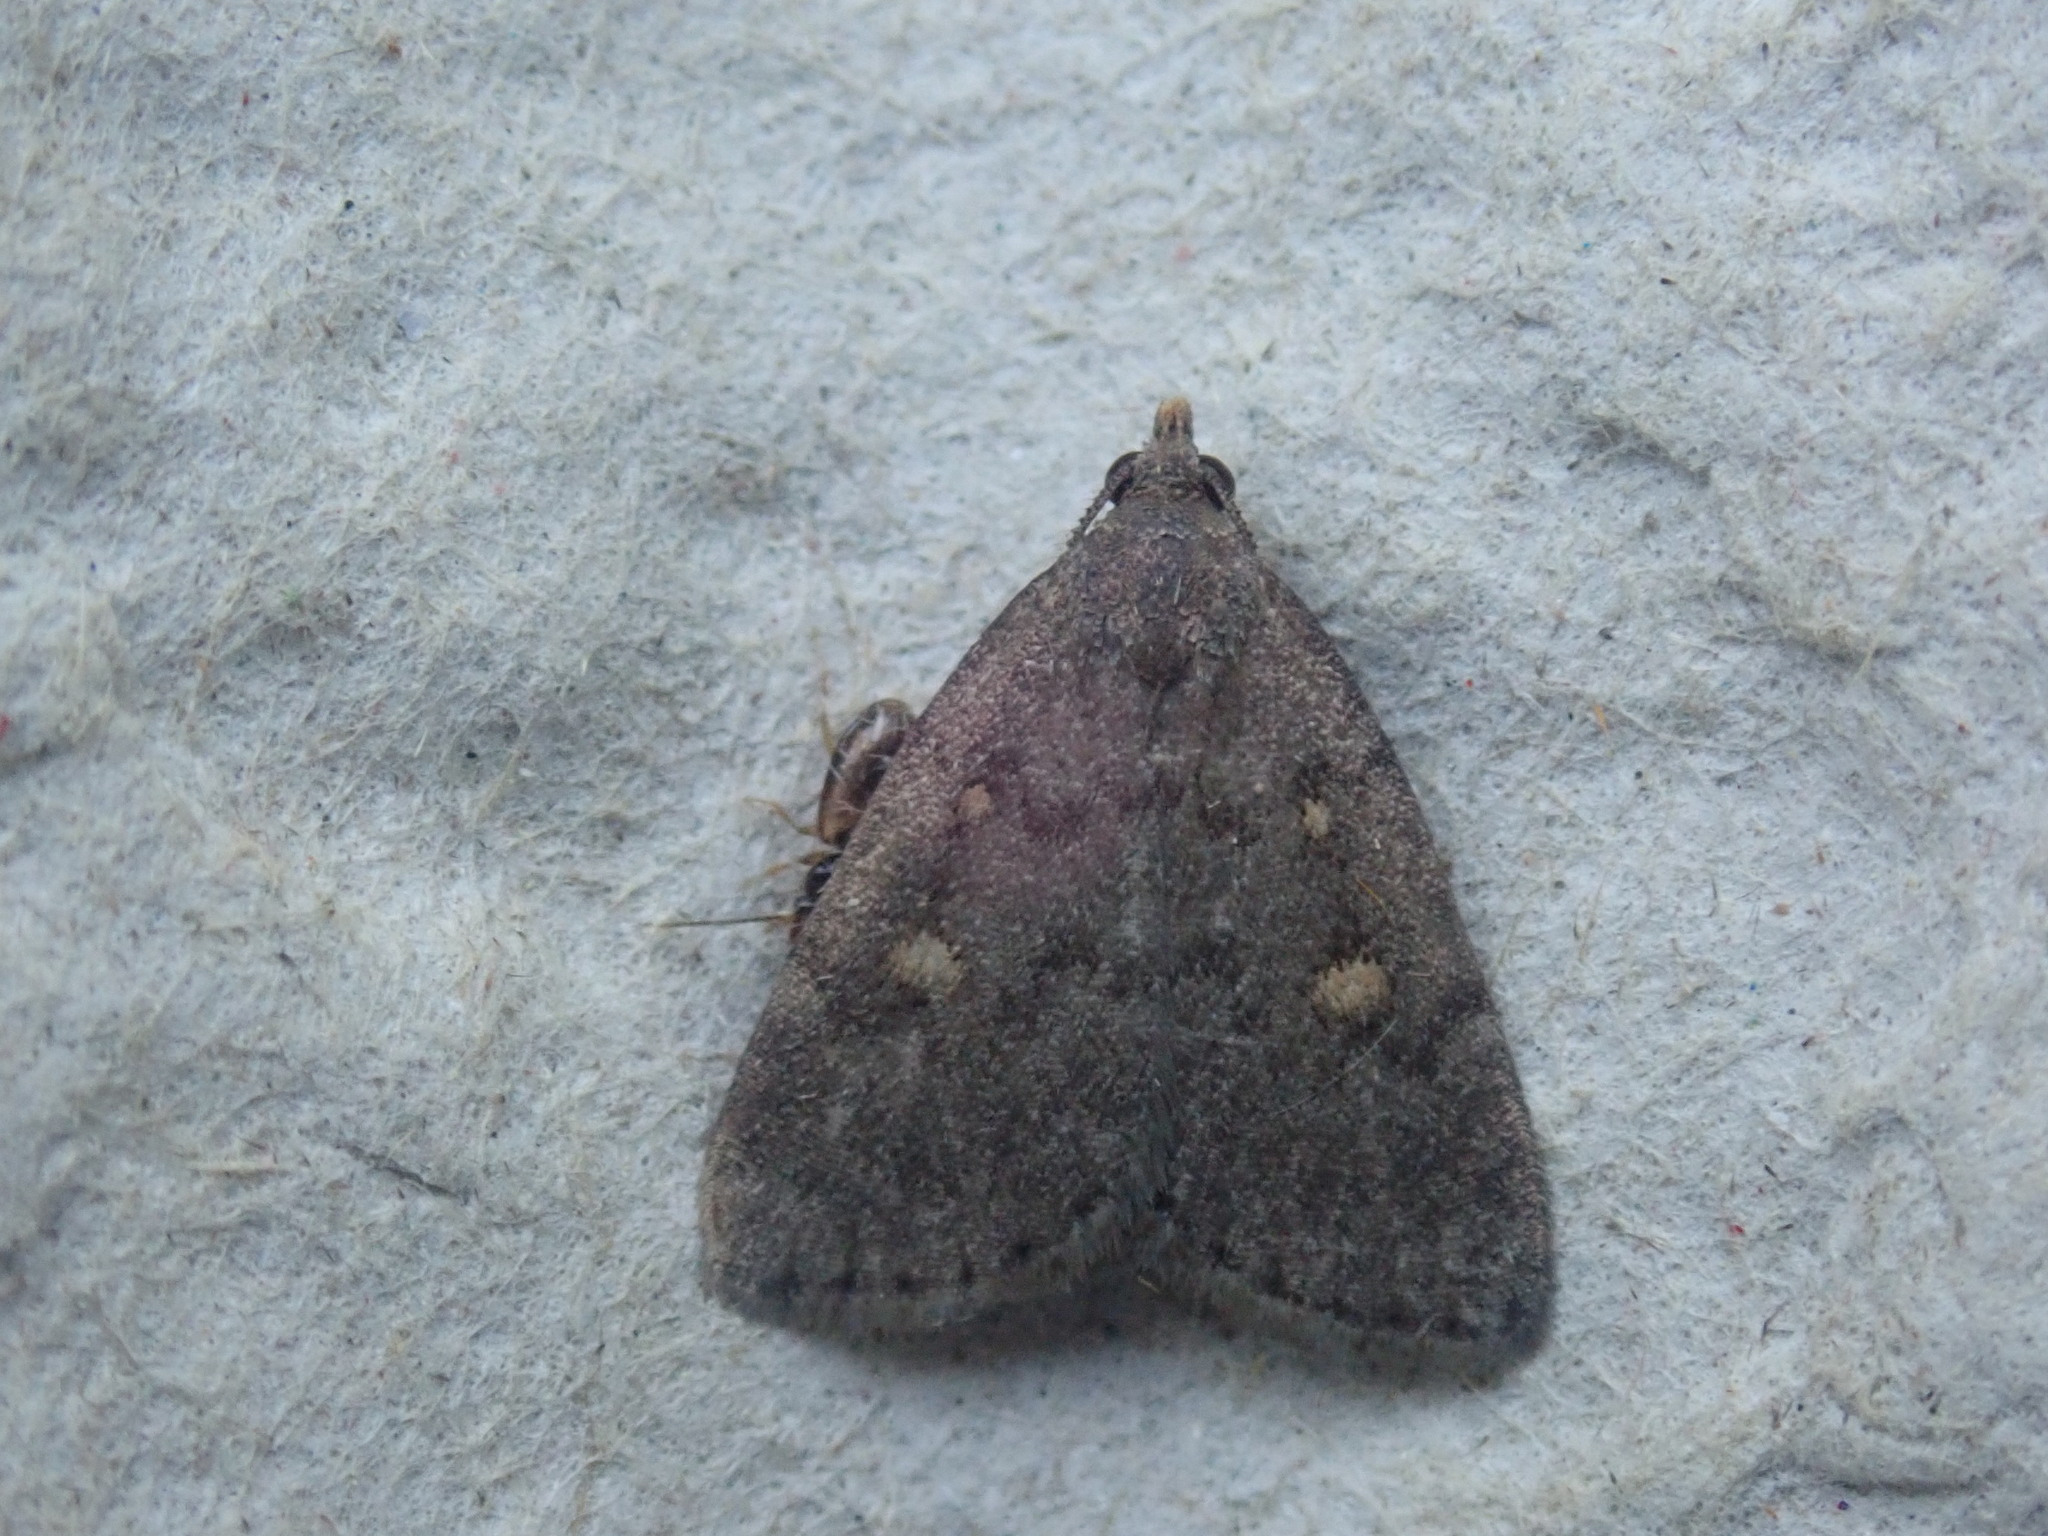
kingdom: Animalia
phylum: Arthropoda
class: Insecta
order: Lepidoptera
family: Erebidae
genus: Idia
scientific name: Idia diminuendis
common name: Orange-spotted idia moth
